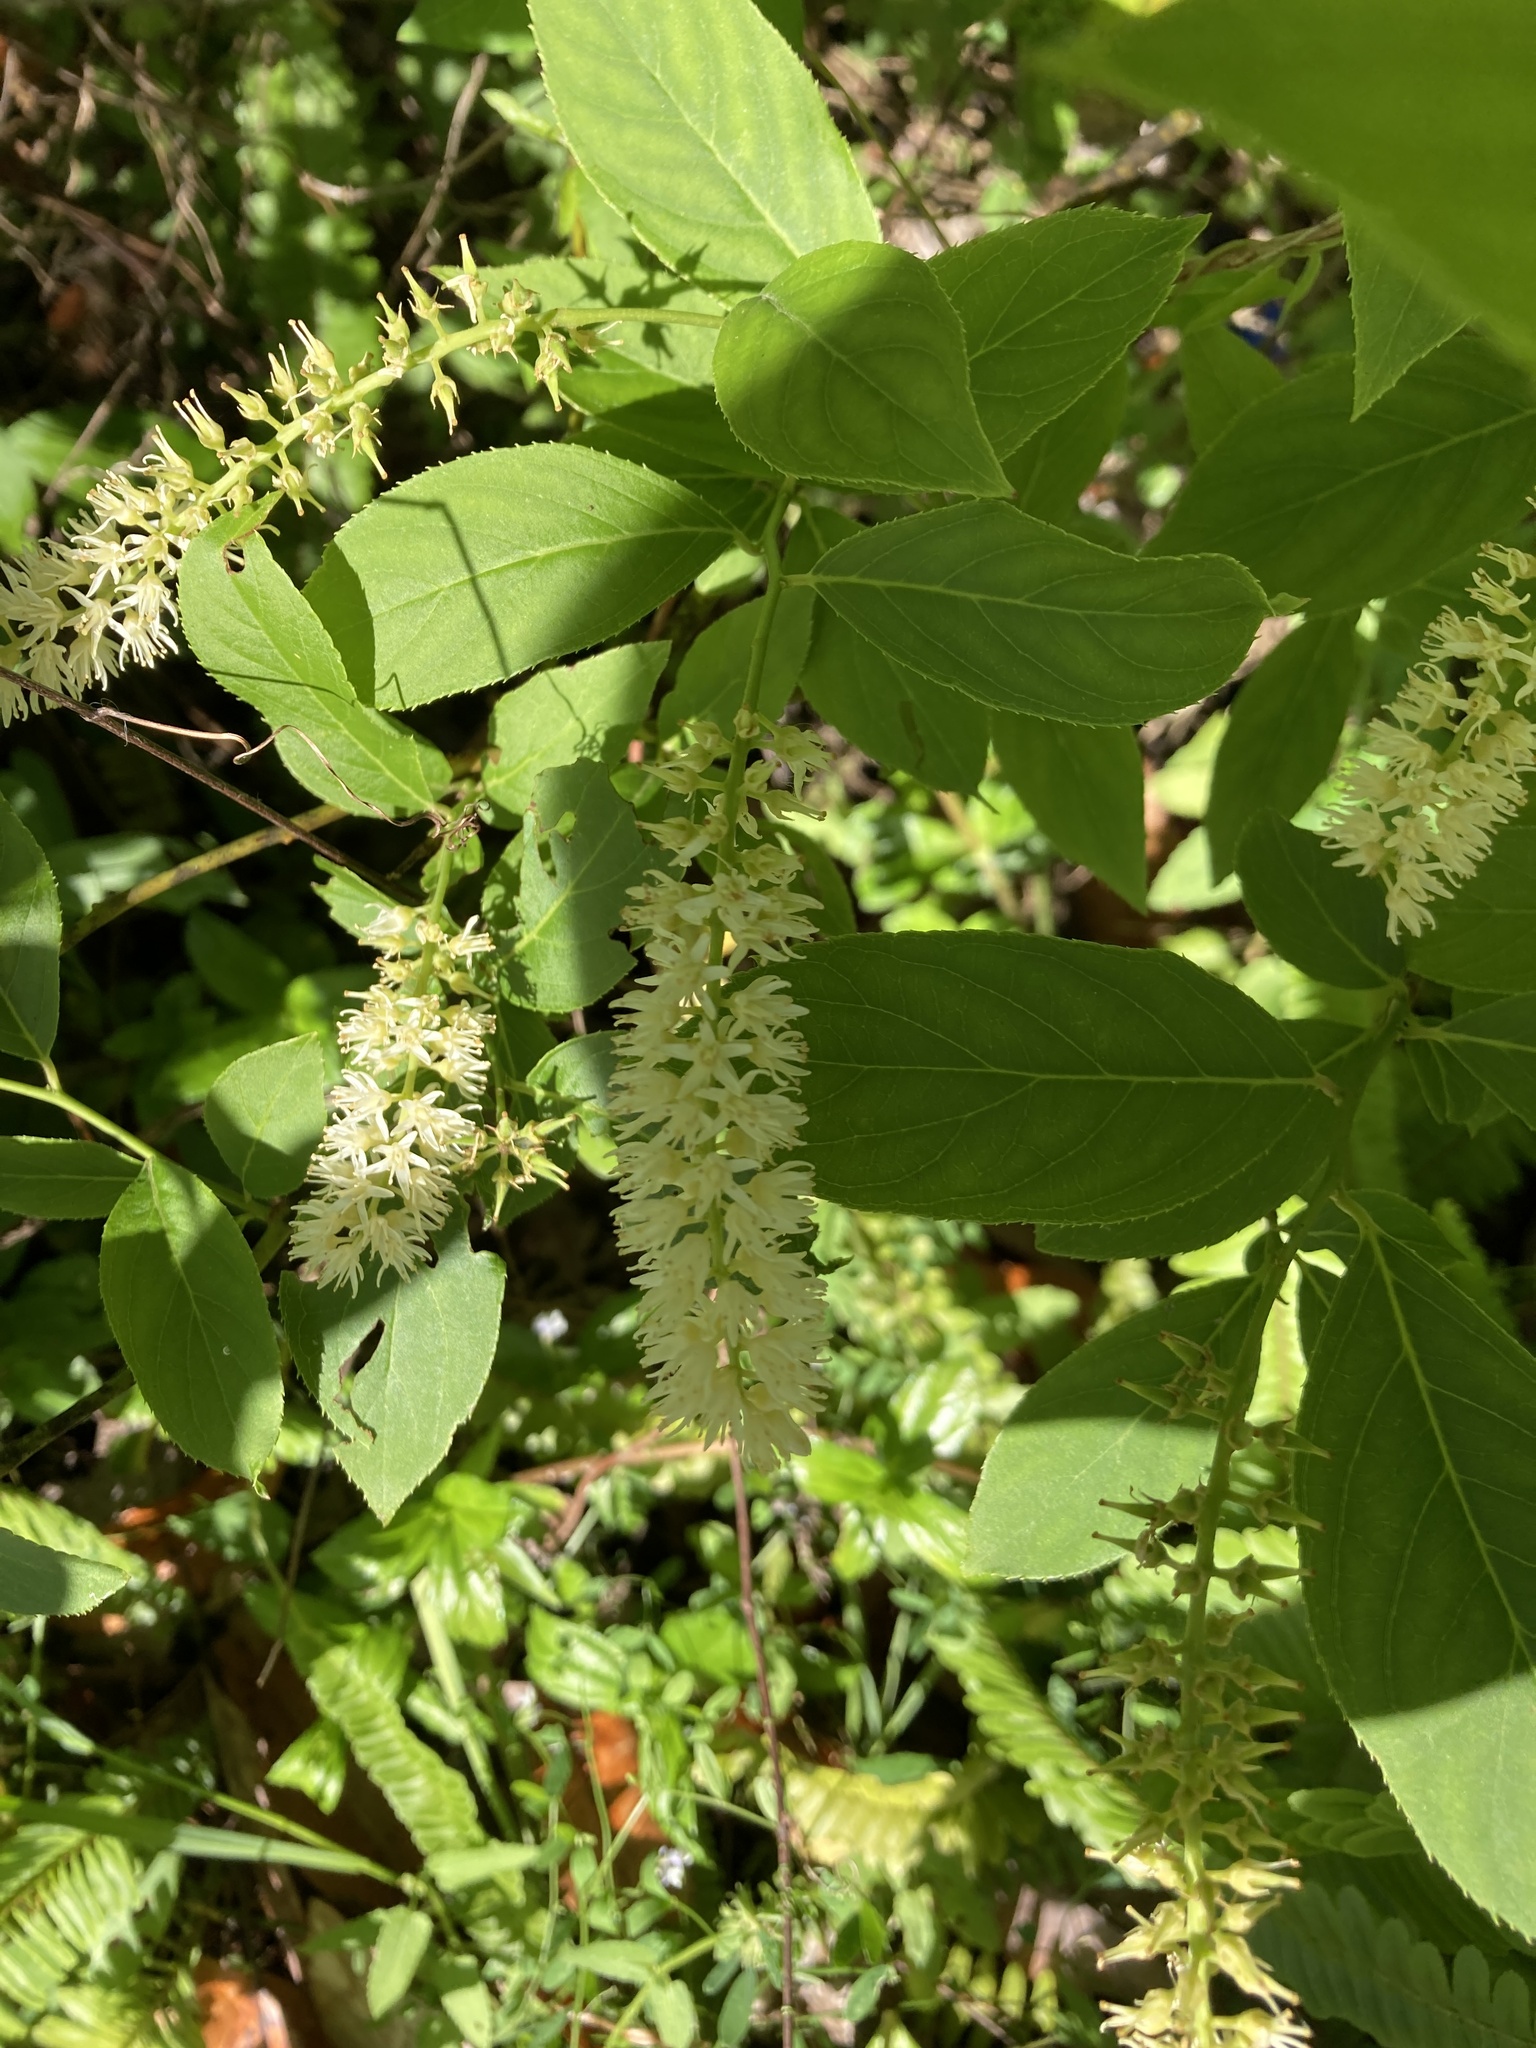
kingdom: Plantae
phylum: Tracheophyta
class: Magnoliopsida
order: Saxifragales
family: Iteaceae
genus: Itea
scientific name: Itea virginica
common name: Sweetspire
